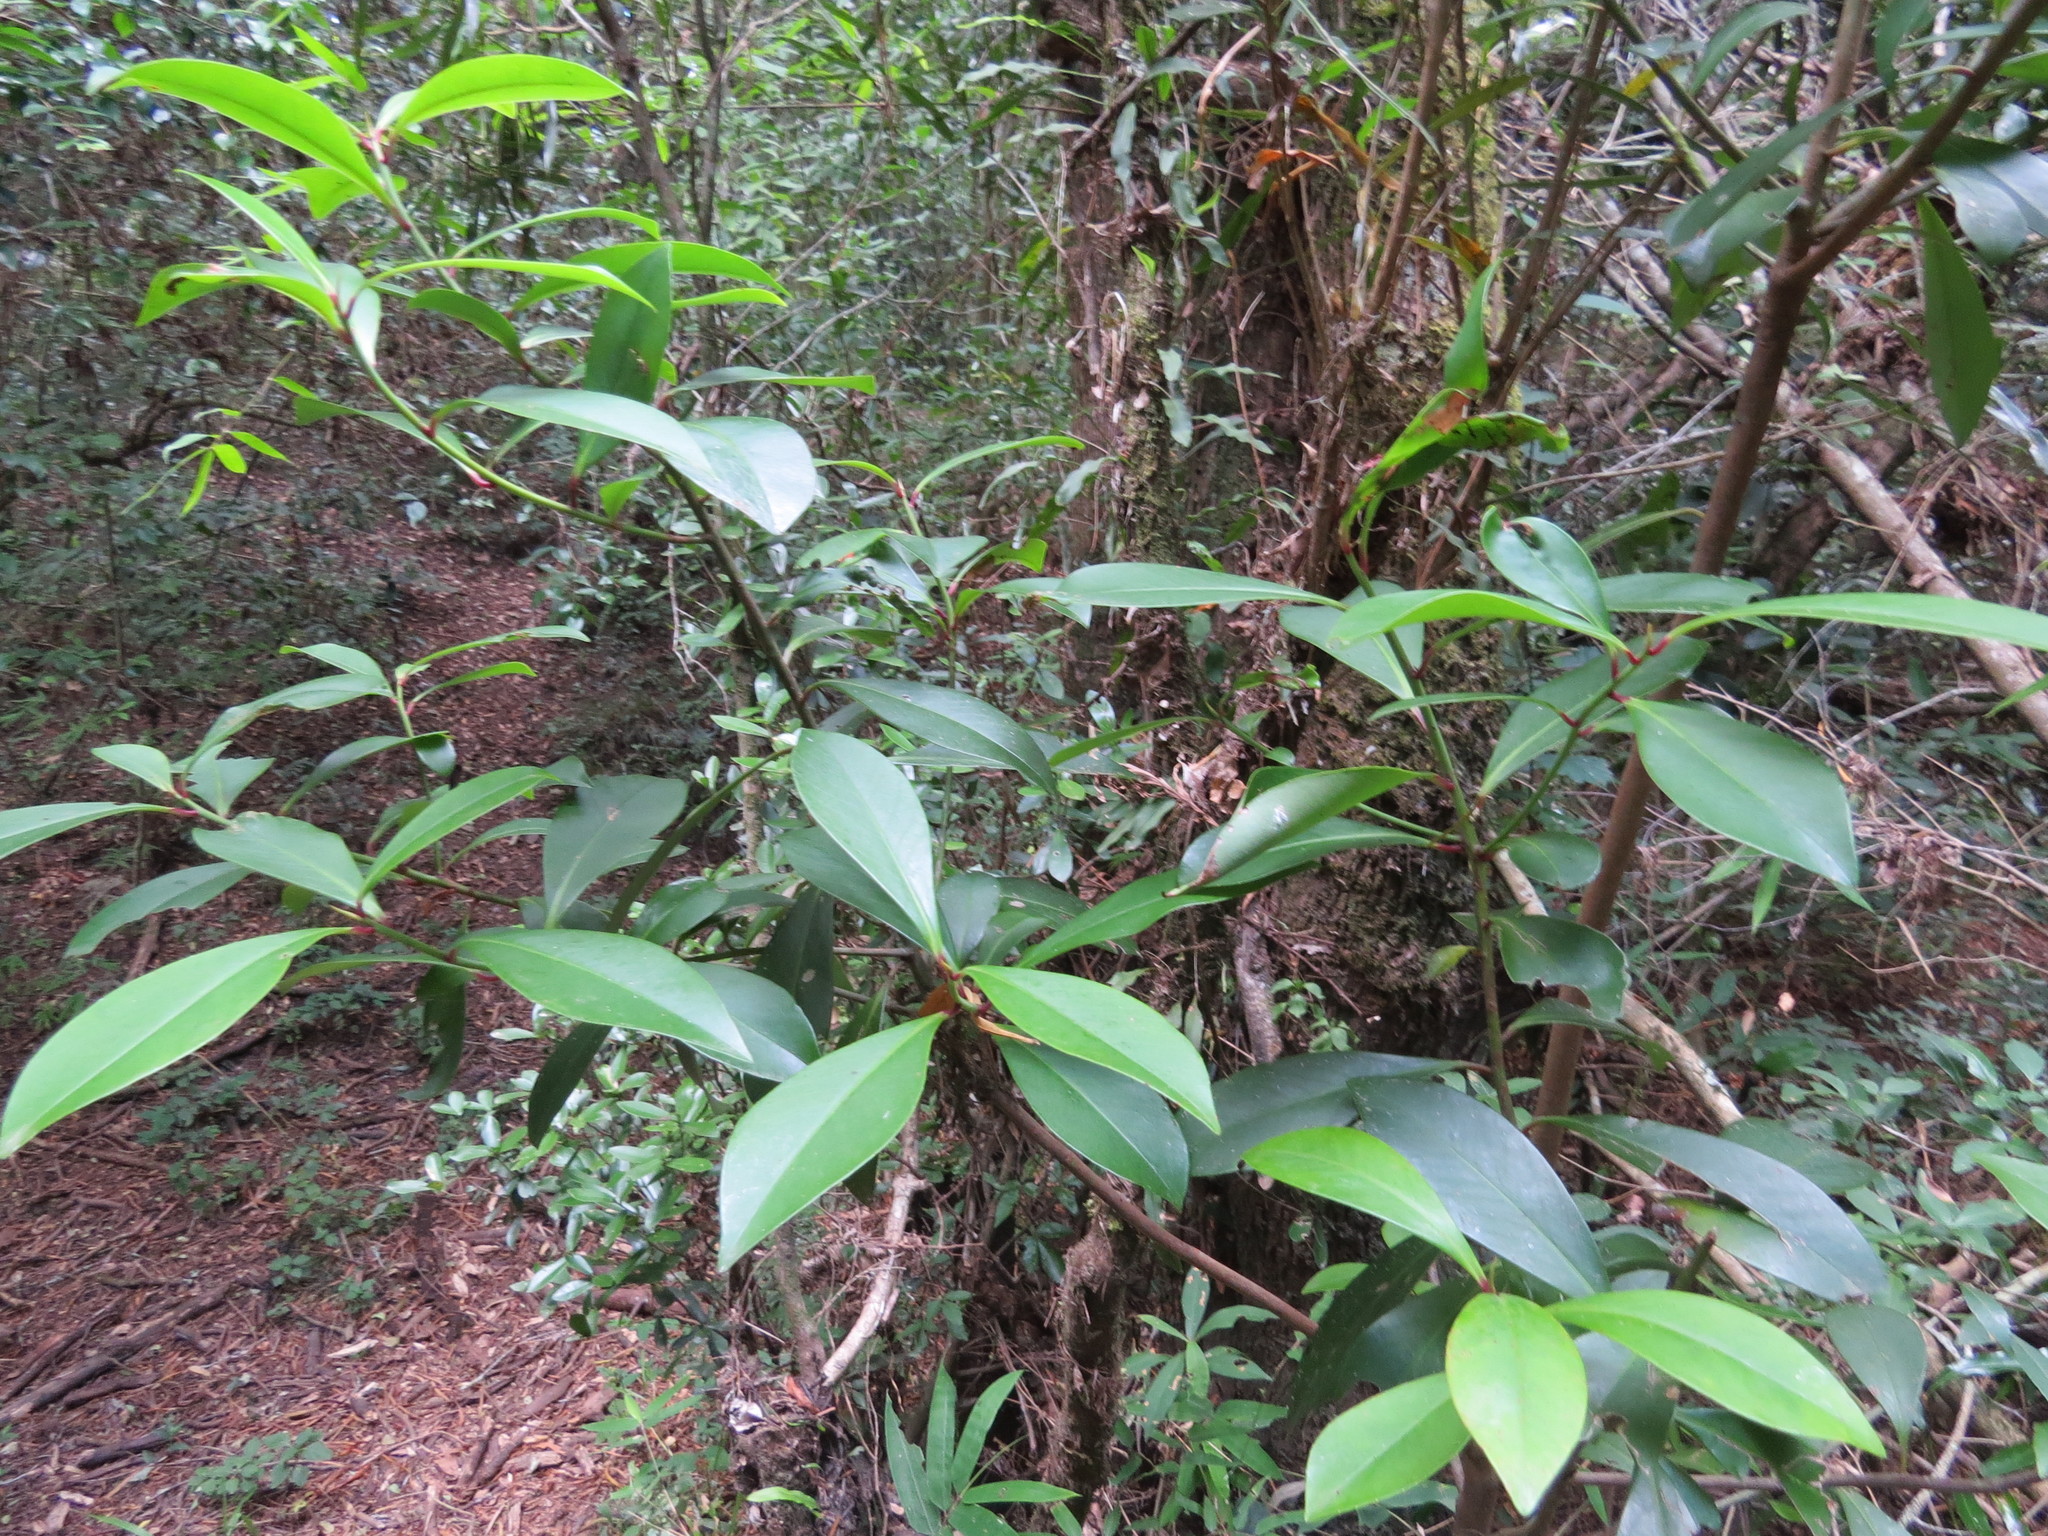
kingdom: Plantae
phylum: Tracheophyta
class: Magnoliopsida
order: Ericales
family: Primulaceae
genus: Myrsine
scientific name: Myrsine lorentziana
